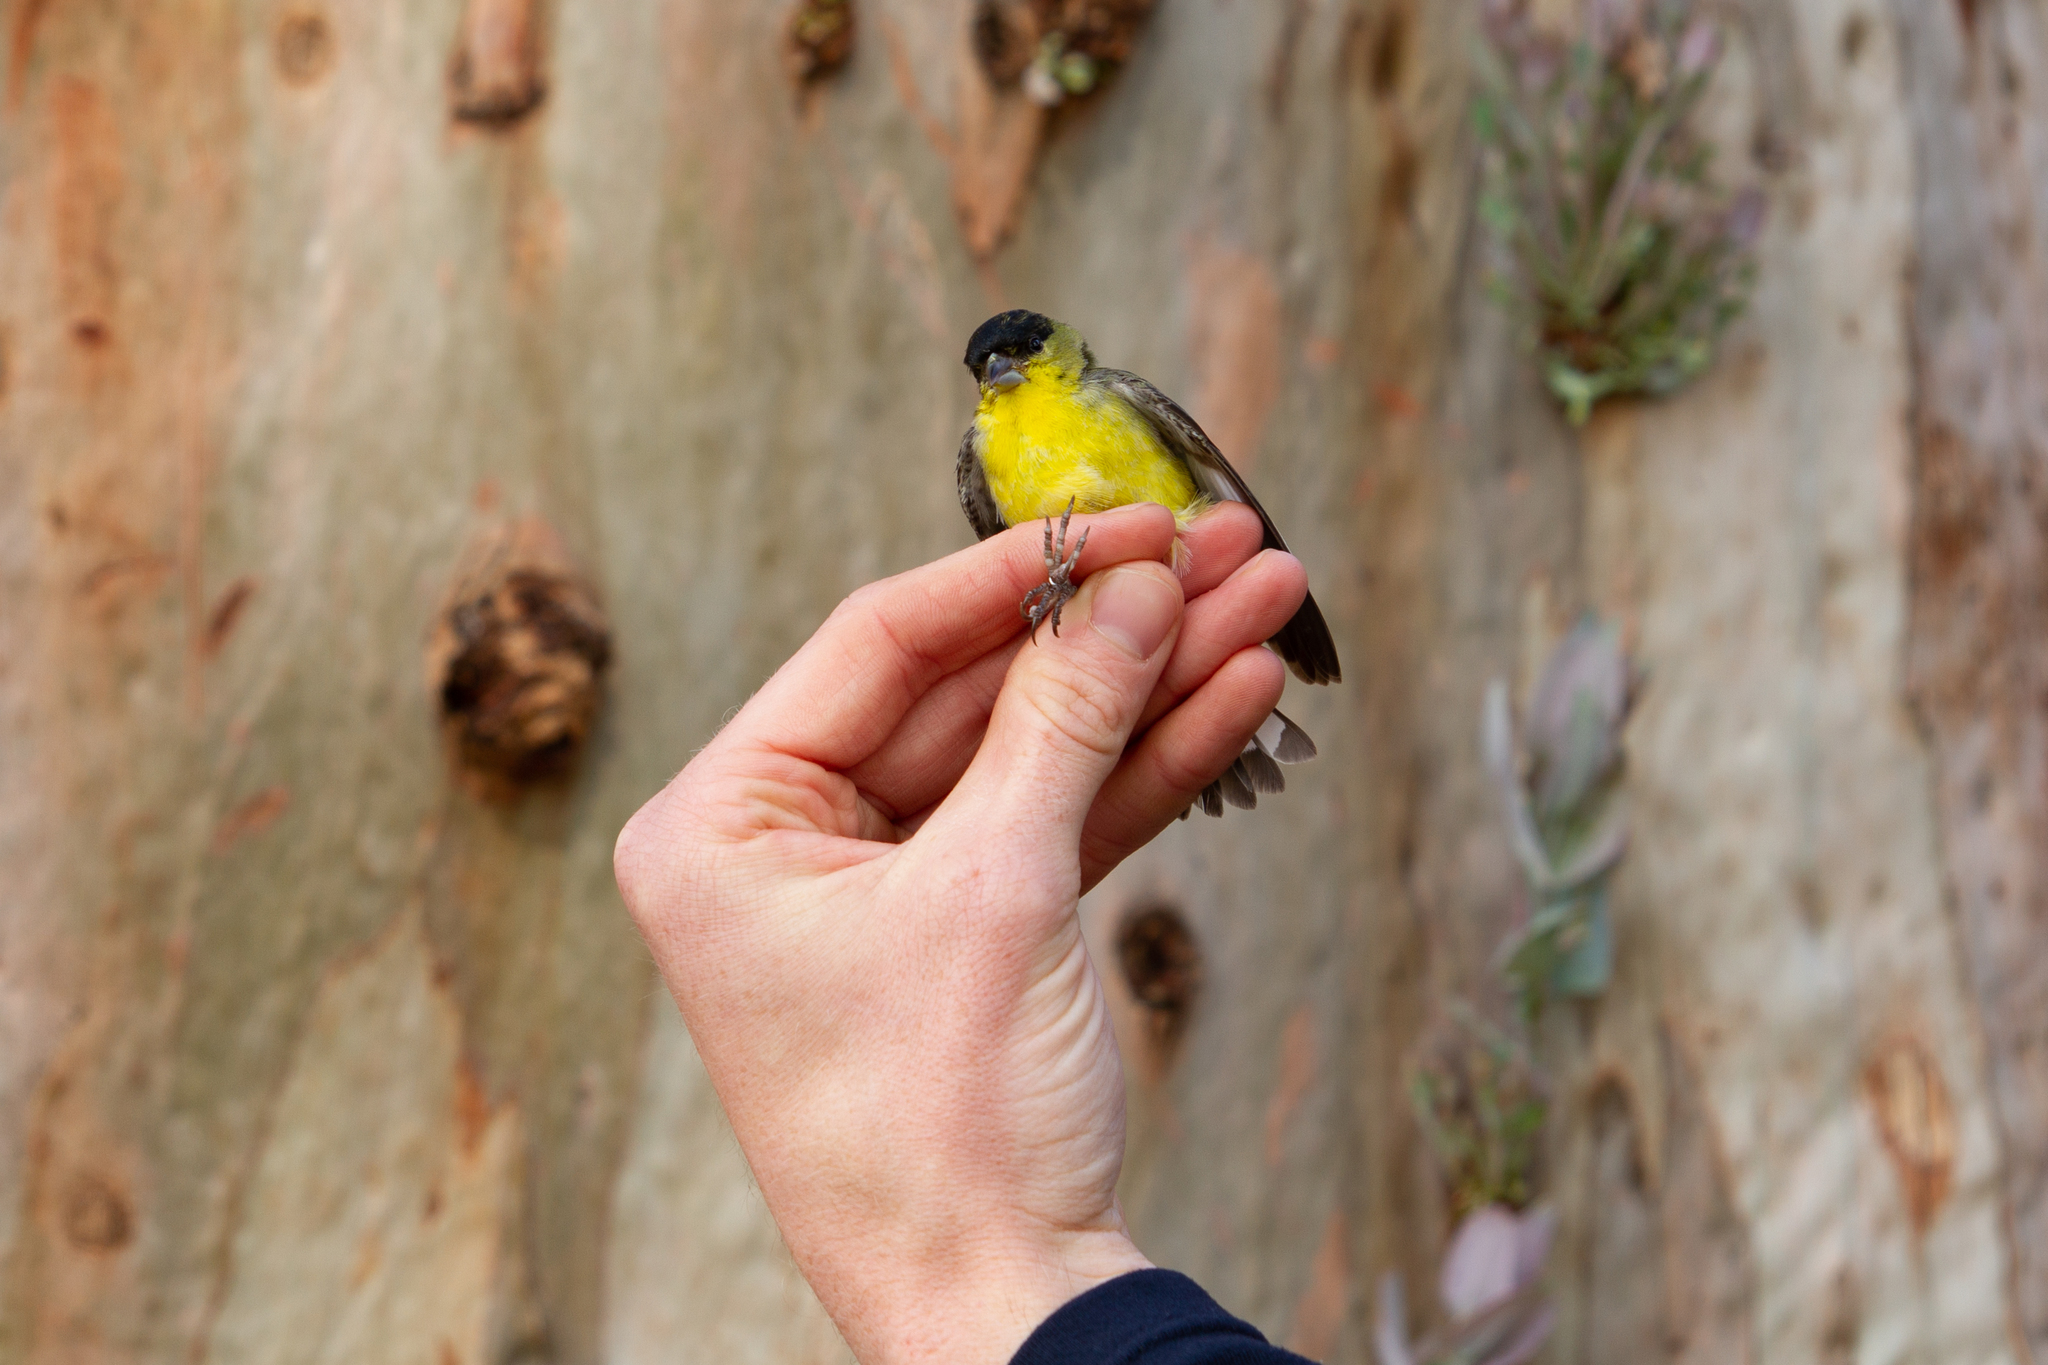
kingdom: Animalia
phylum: Chordata
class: Aves
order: Passeriformes
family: Fringillidae
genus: Spinus
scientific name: Spinus psaltria
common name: Lesser goldfinch
